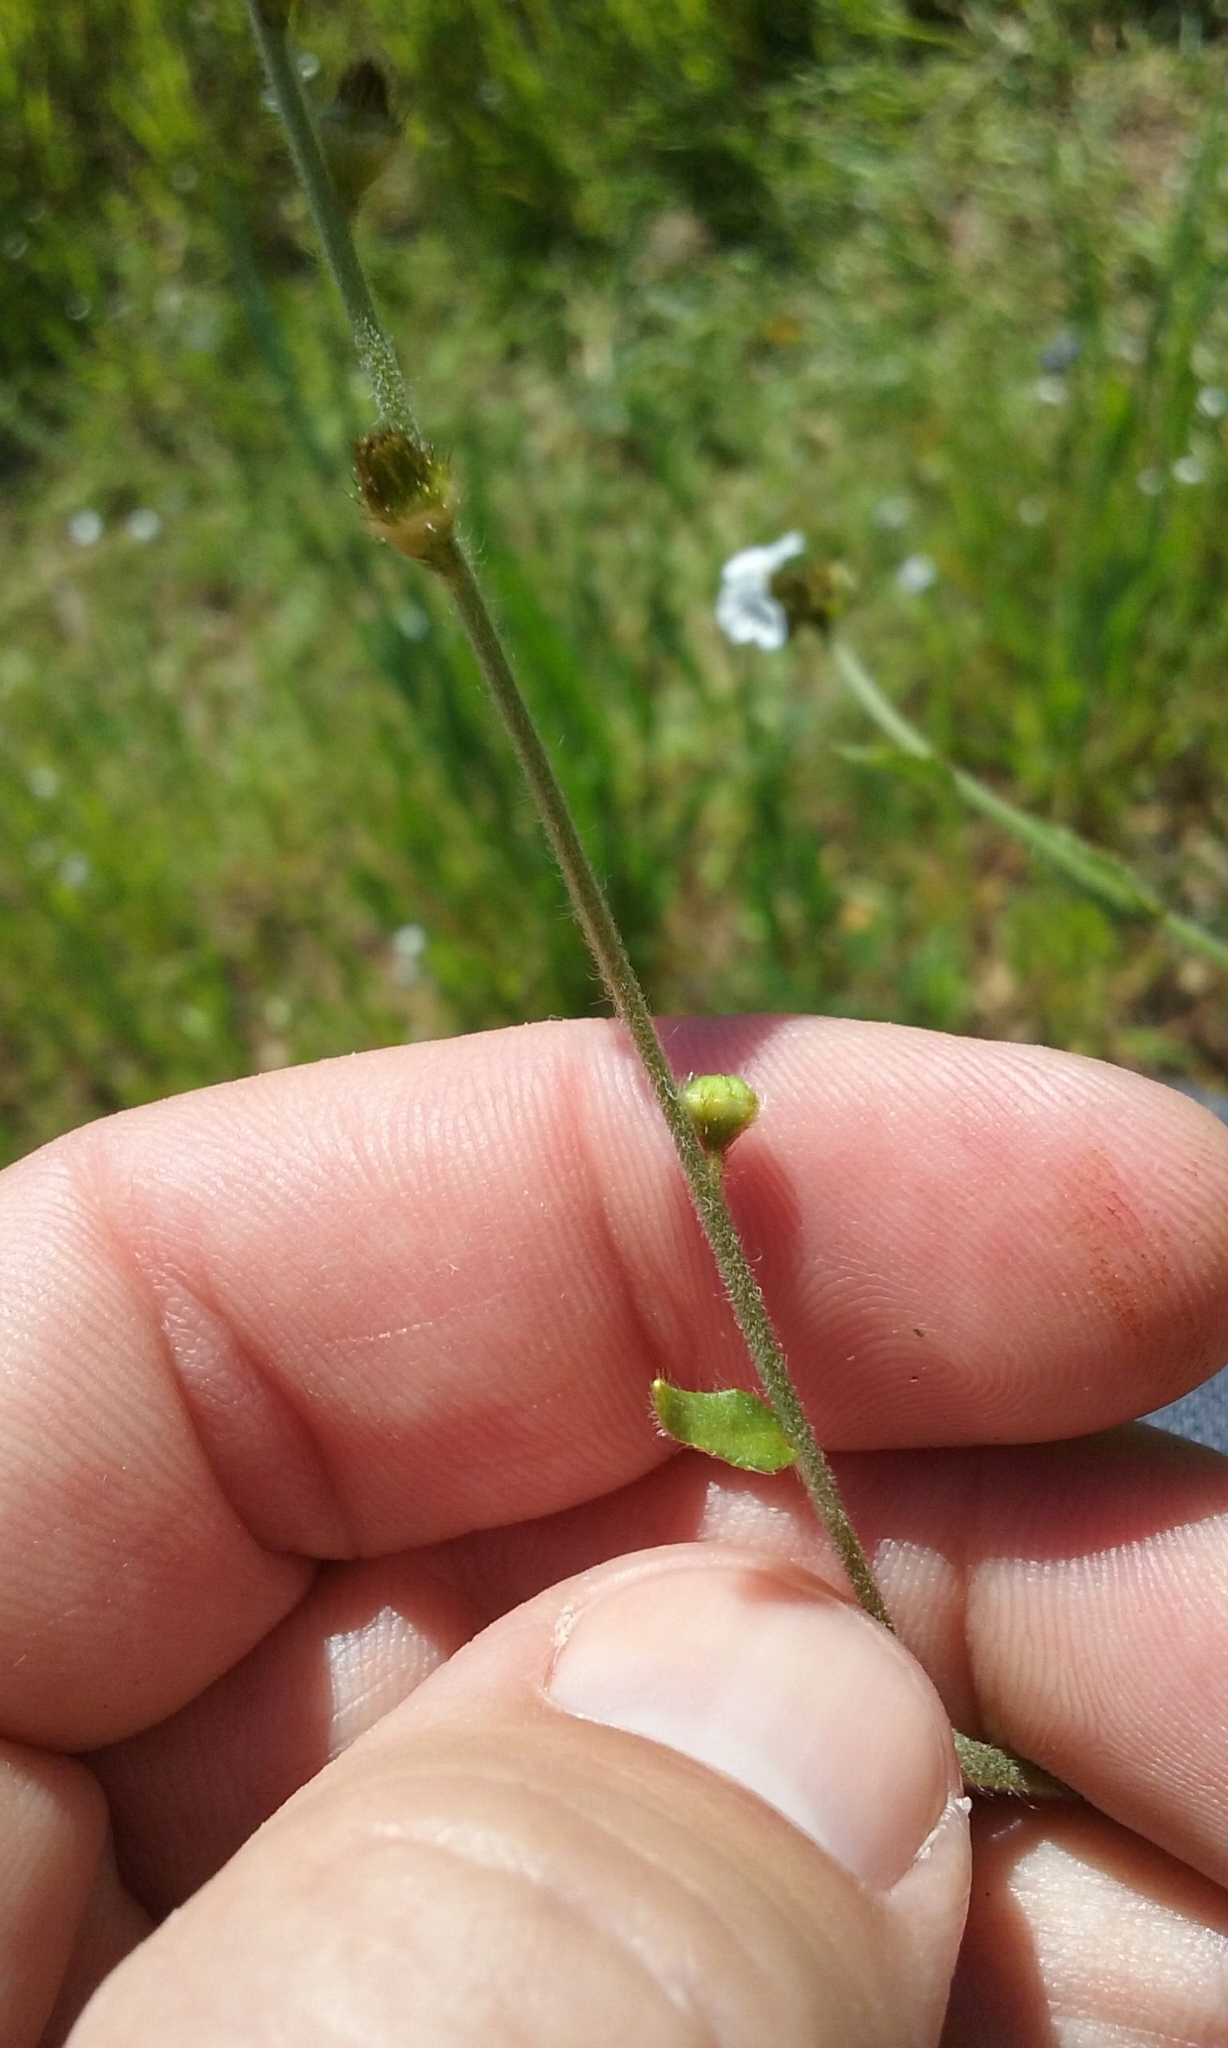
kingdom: Plantae
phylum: Tracheophyta
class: Magnoliopsida
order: Boraginales
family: Boraginaceae
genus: Plagiobothrys
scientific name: Plagiobothrys fulvus
